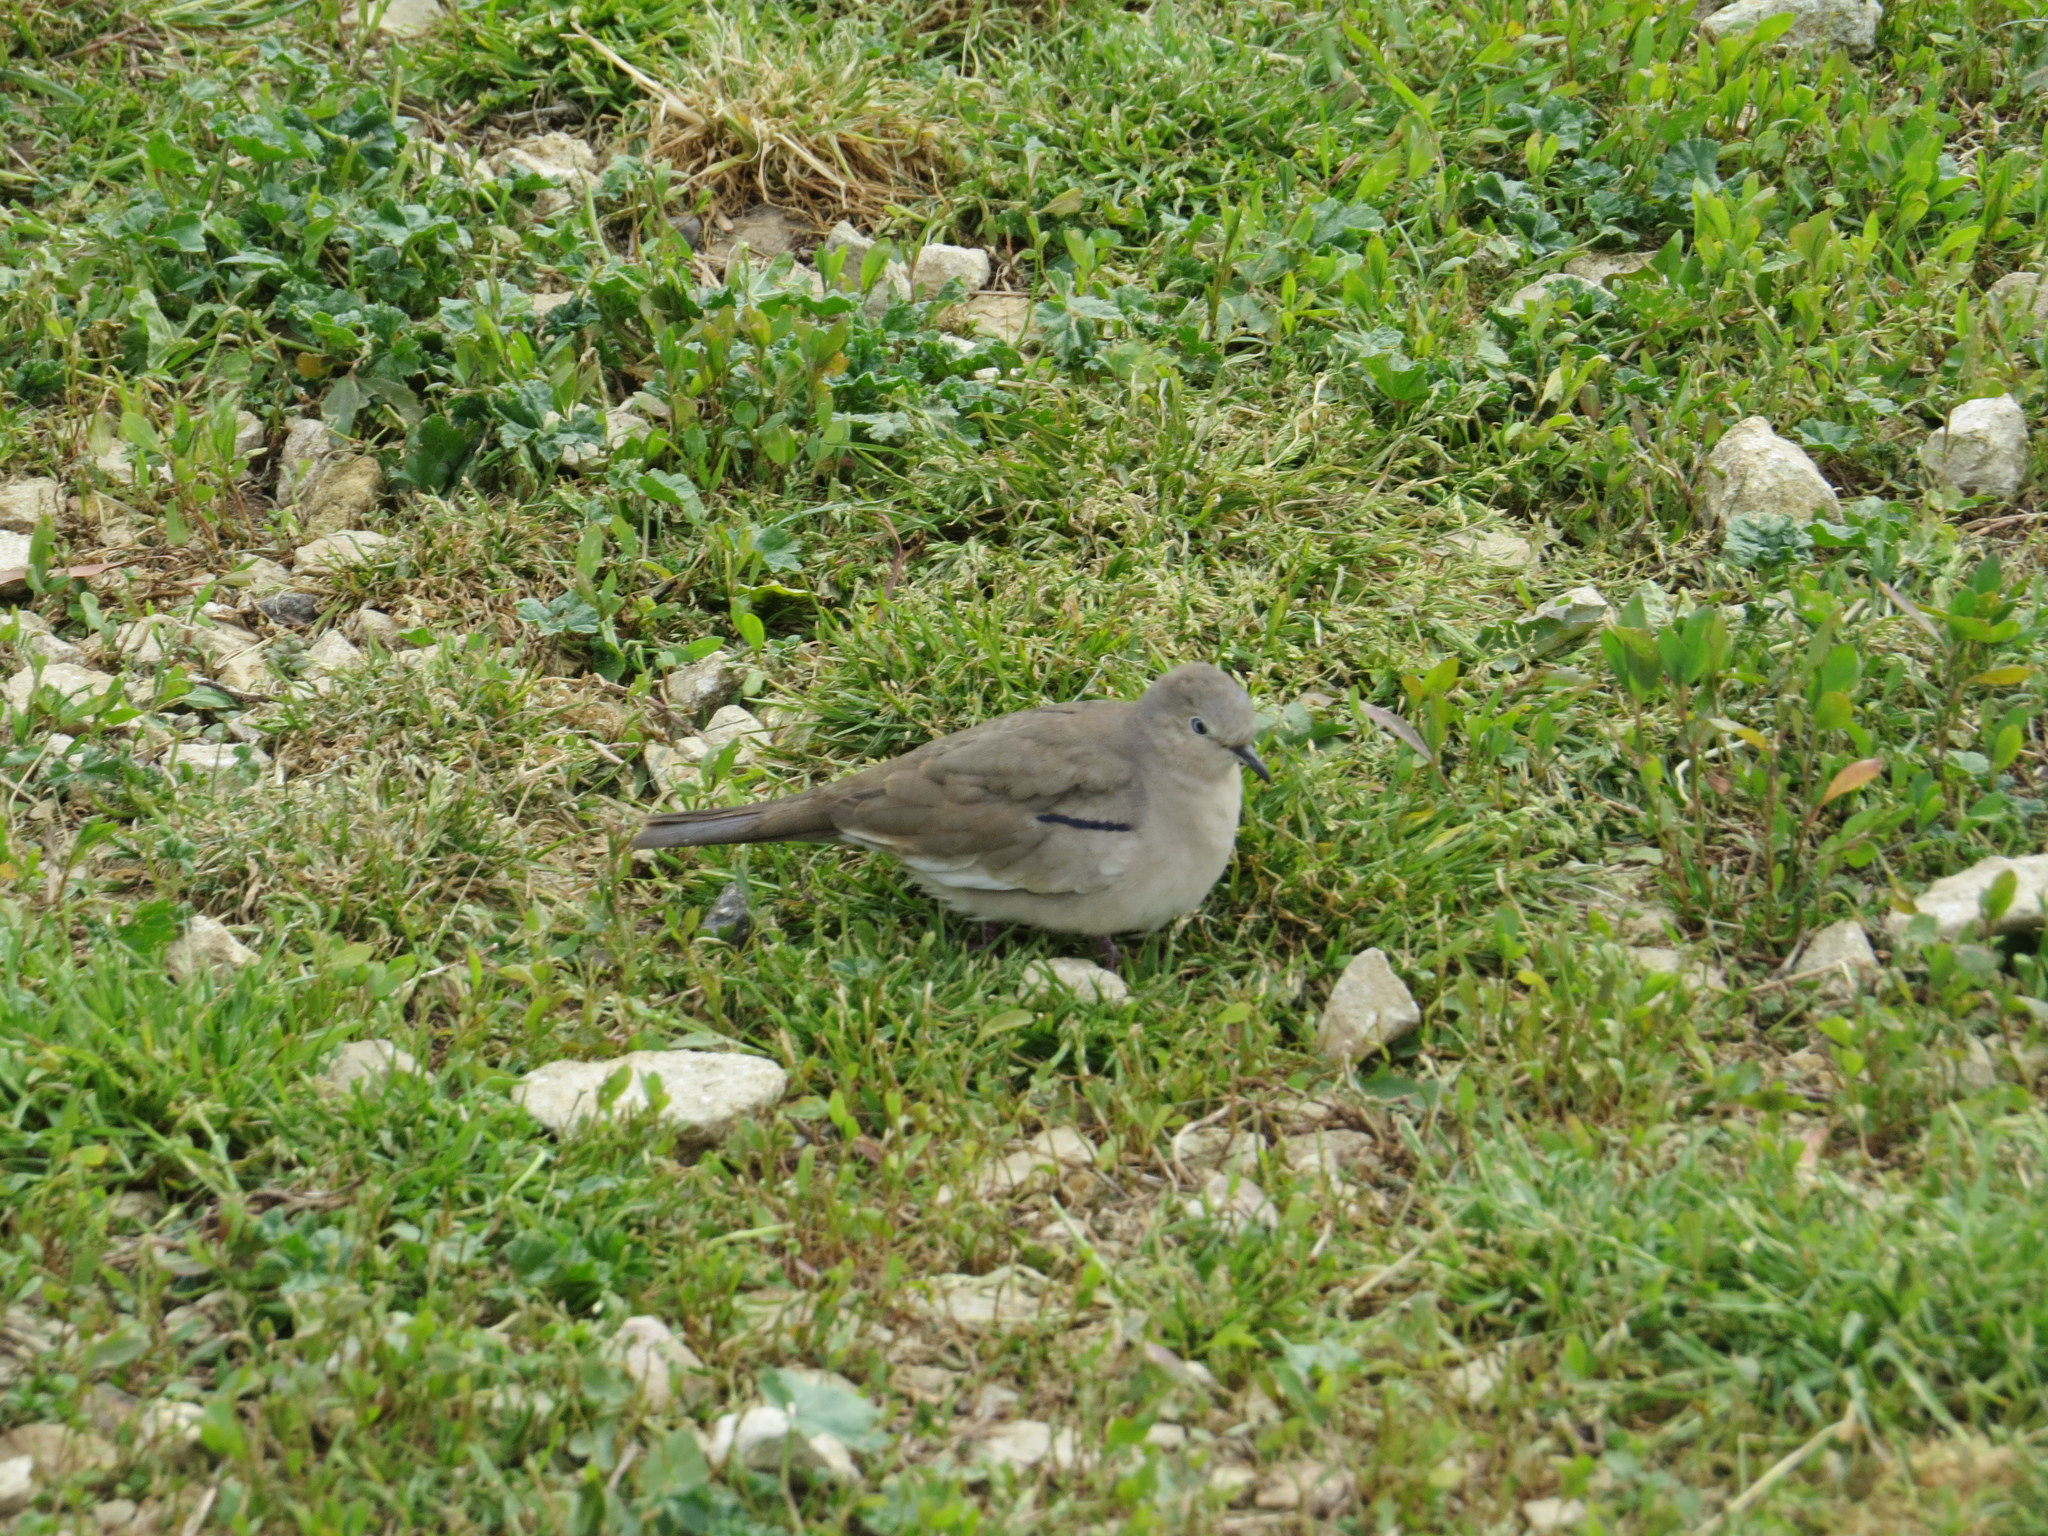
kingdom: Animalia
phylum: Chordata
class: Aves
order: Columbiformes
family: Columbidae
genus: Columbina
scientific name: Columbina picui
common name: Picui ground dove
